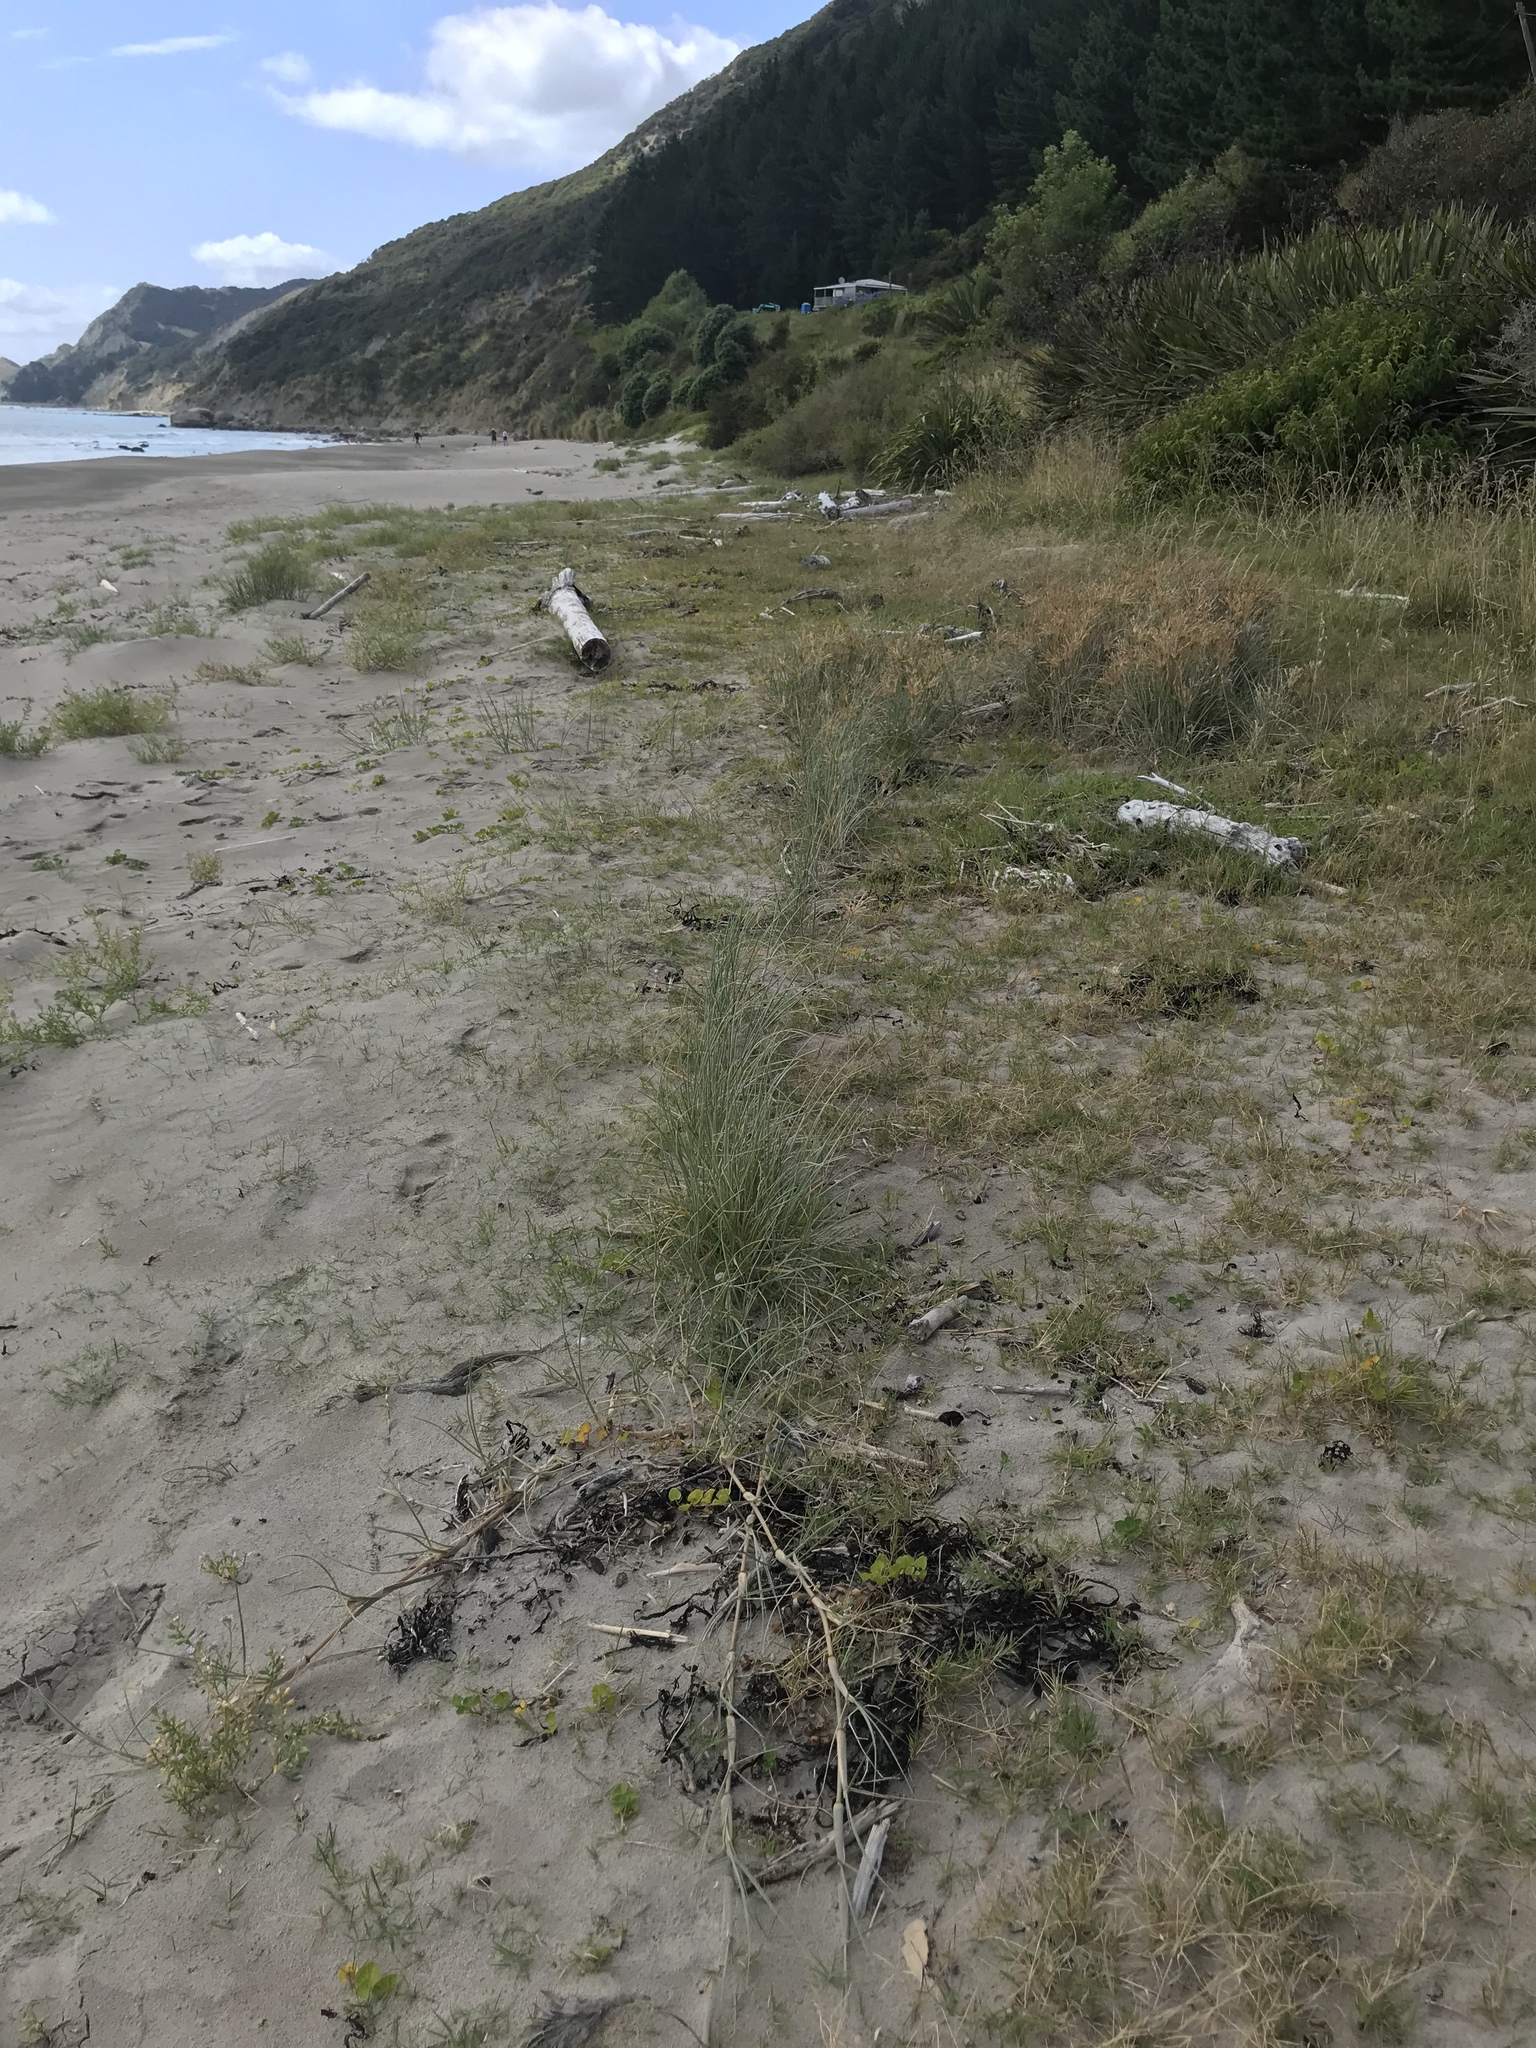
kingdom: Plantae
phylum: Tracheophyta
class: Liliopsida
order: Poales
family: Poaceae
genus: Spinifex
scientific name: Spinifex sericeus
